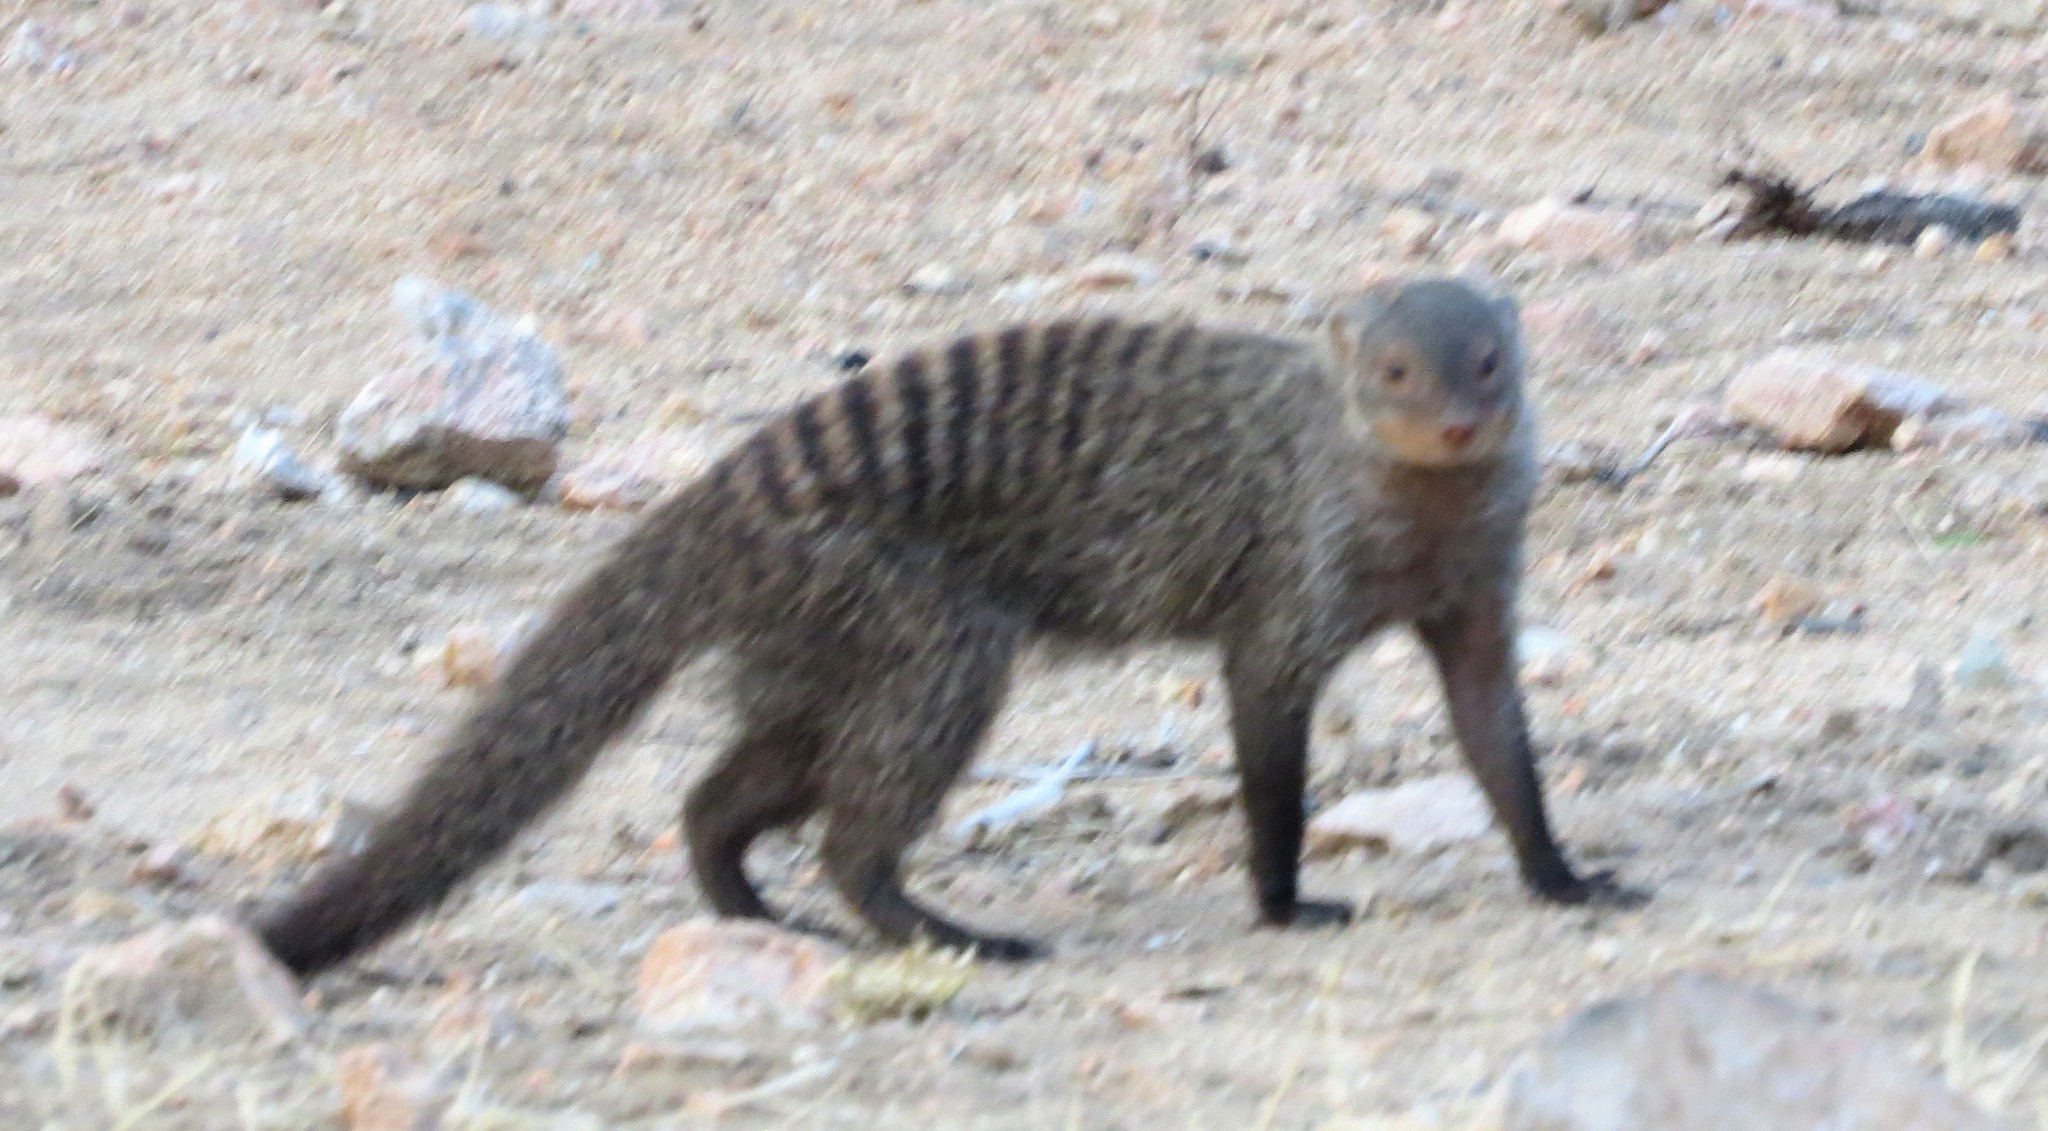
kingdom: Animalia
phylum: Chordata
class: Mammalia
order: Carnivora
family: Herpestidae
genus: Mungos
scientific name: Mungos mungo
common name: Banded mongoose
